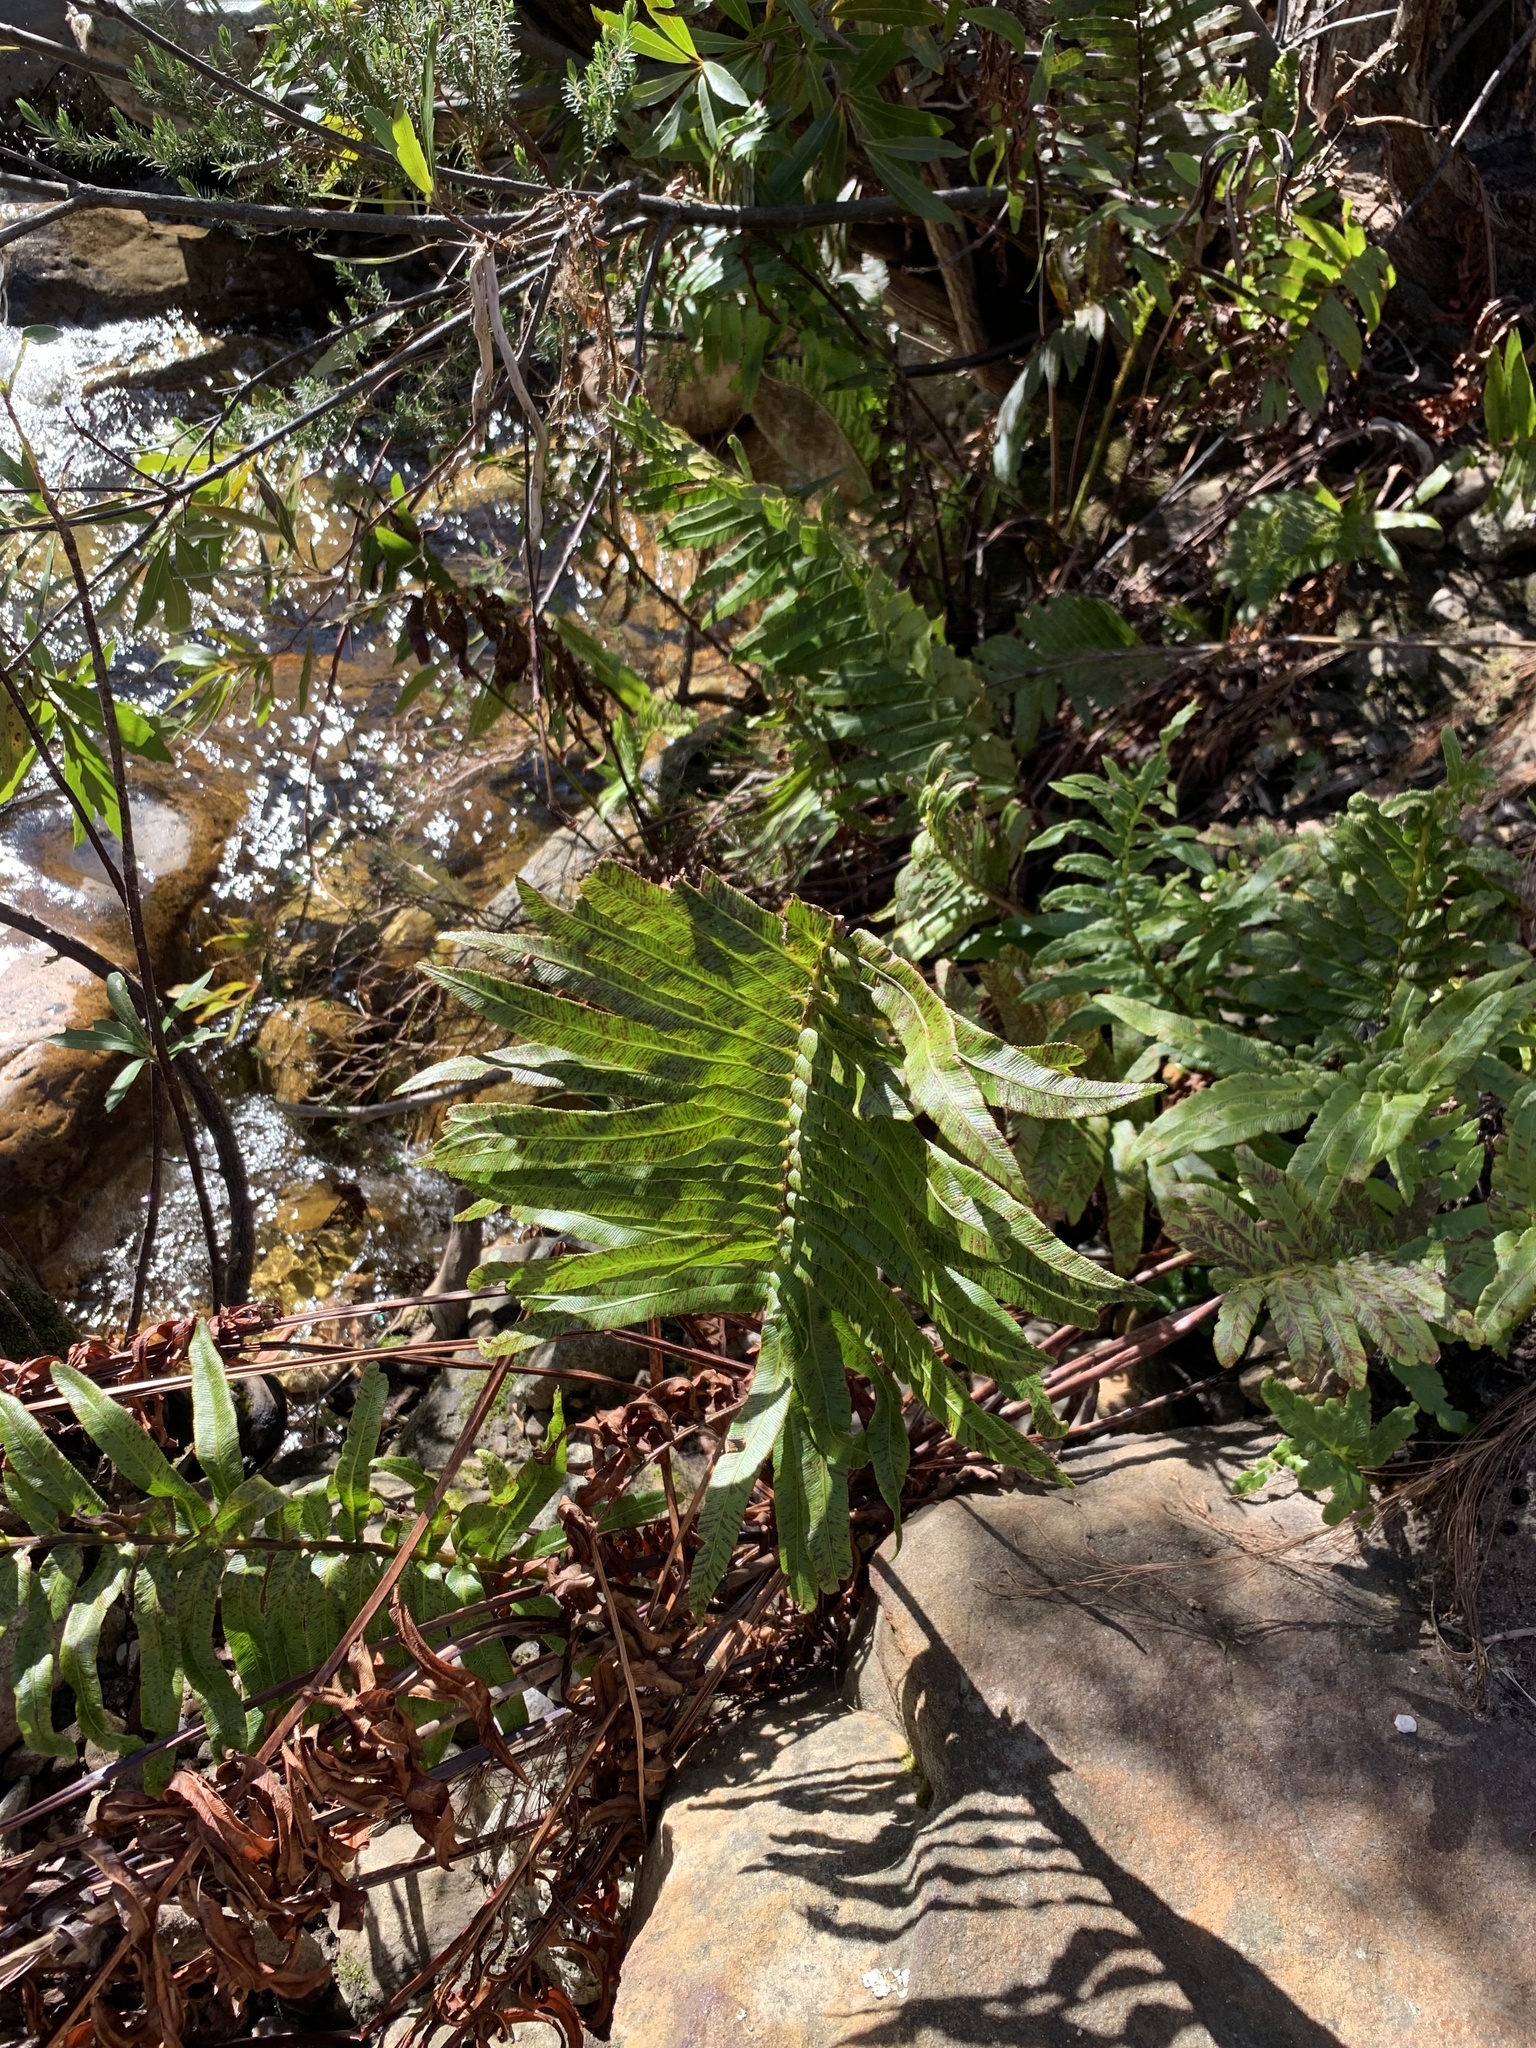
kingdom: Plantae
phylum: Tracheophyta
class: Polypodiopsida
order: Polypodiales
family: Blechnaceae
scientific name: Blechnaceae
